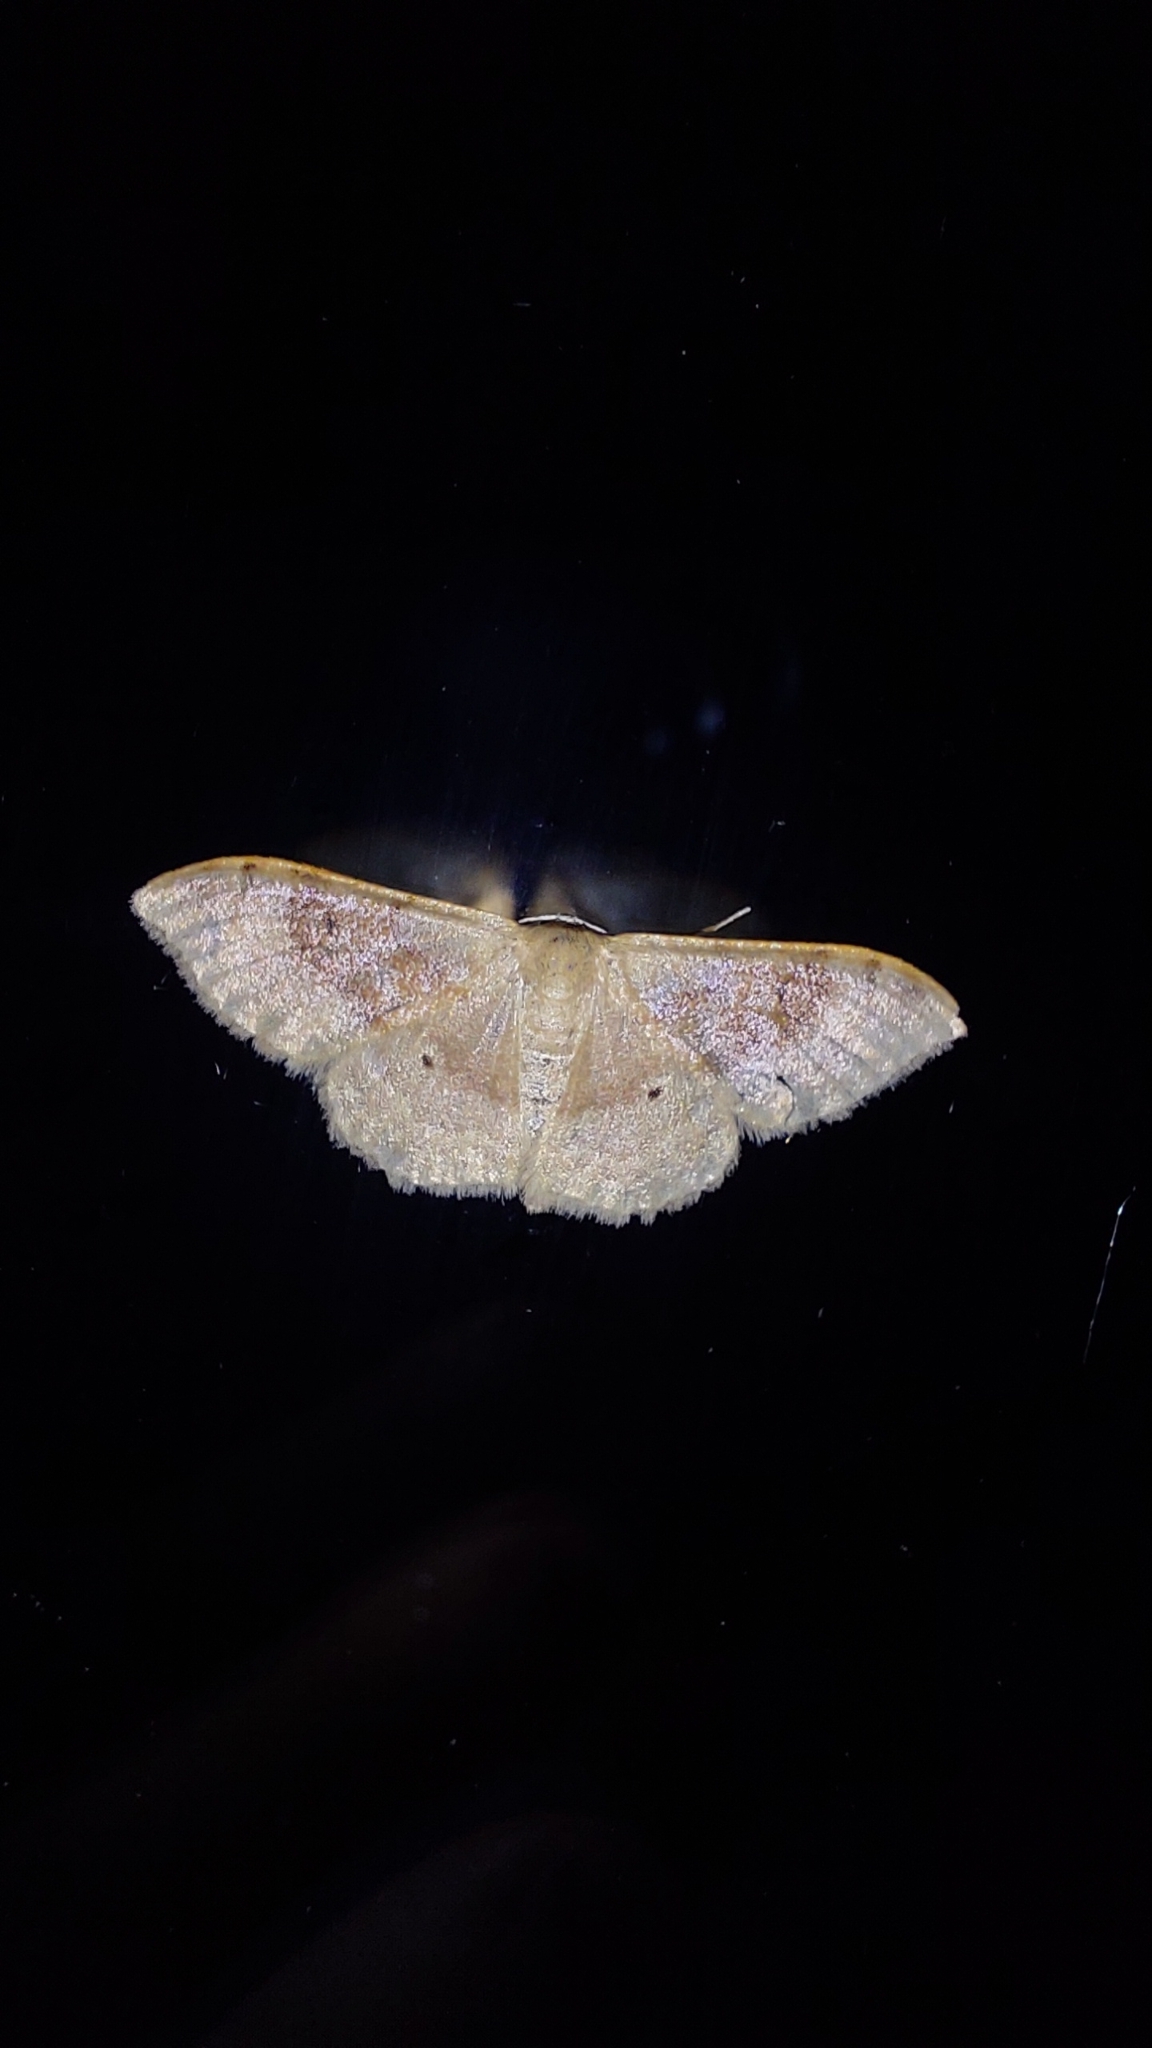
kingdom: Animalia
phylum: Arthropoda
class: Insecta
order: Lepidoptera
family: Geometridae
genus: Idaea
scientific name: Idaea degeneraria
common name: Portland ribbon wave
